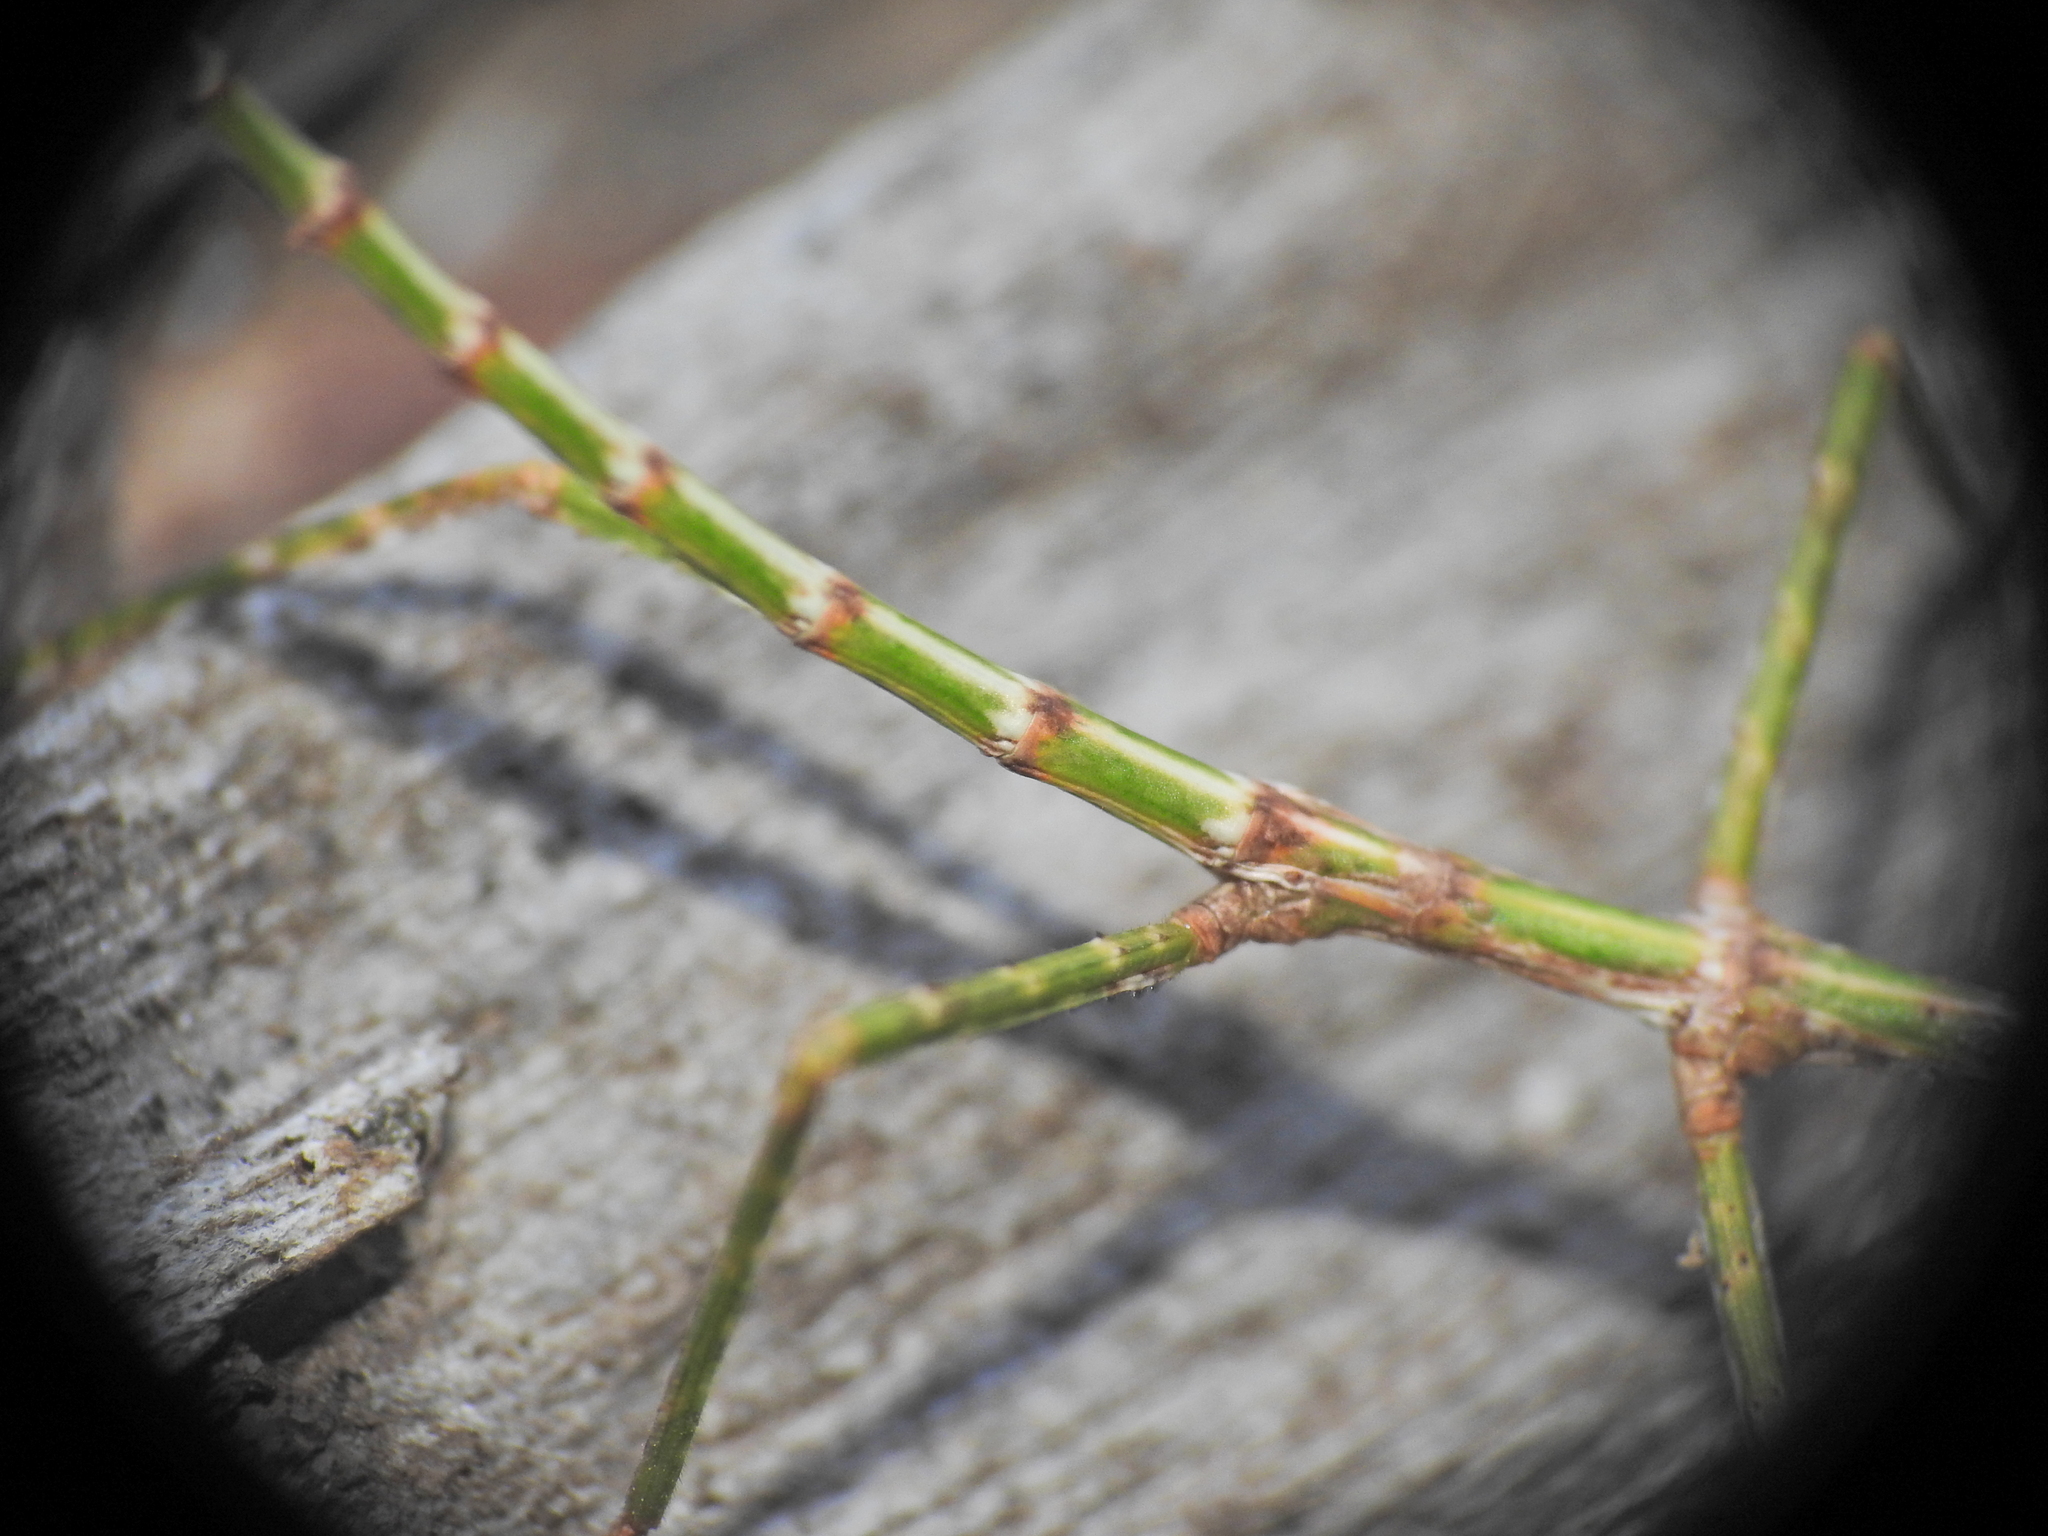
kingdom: Animalia
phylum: Arthropoda
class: Insecta
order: Phasmida
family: Phasmatidae
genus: Acrophylla
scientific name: Acrophylla titan
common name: Titan stick insect
